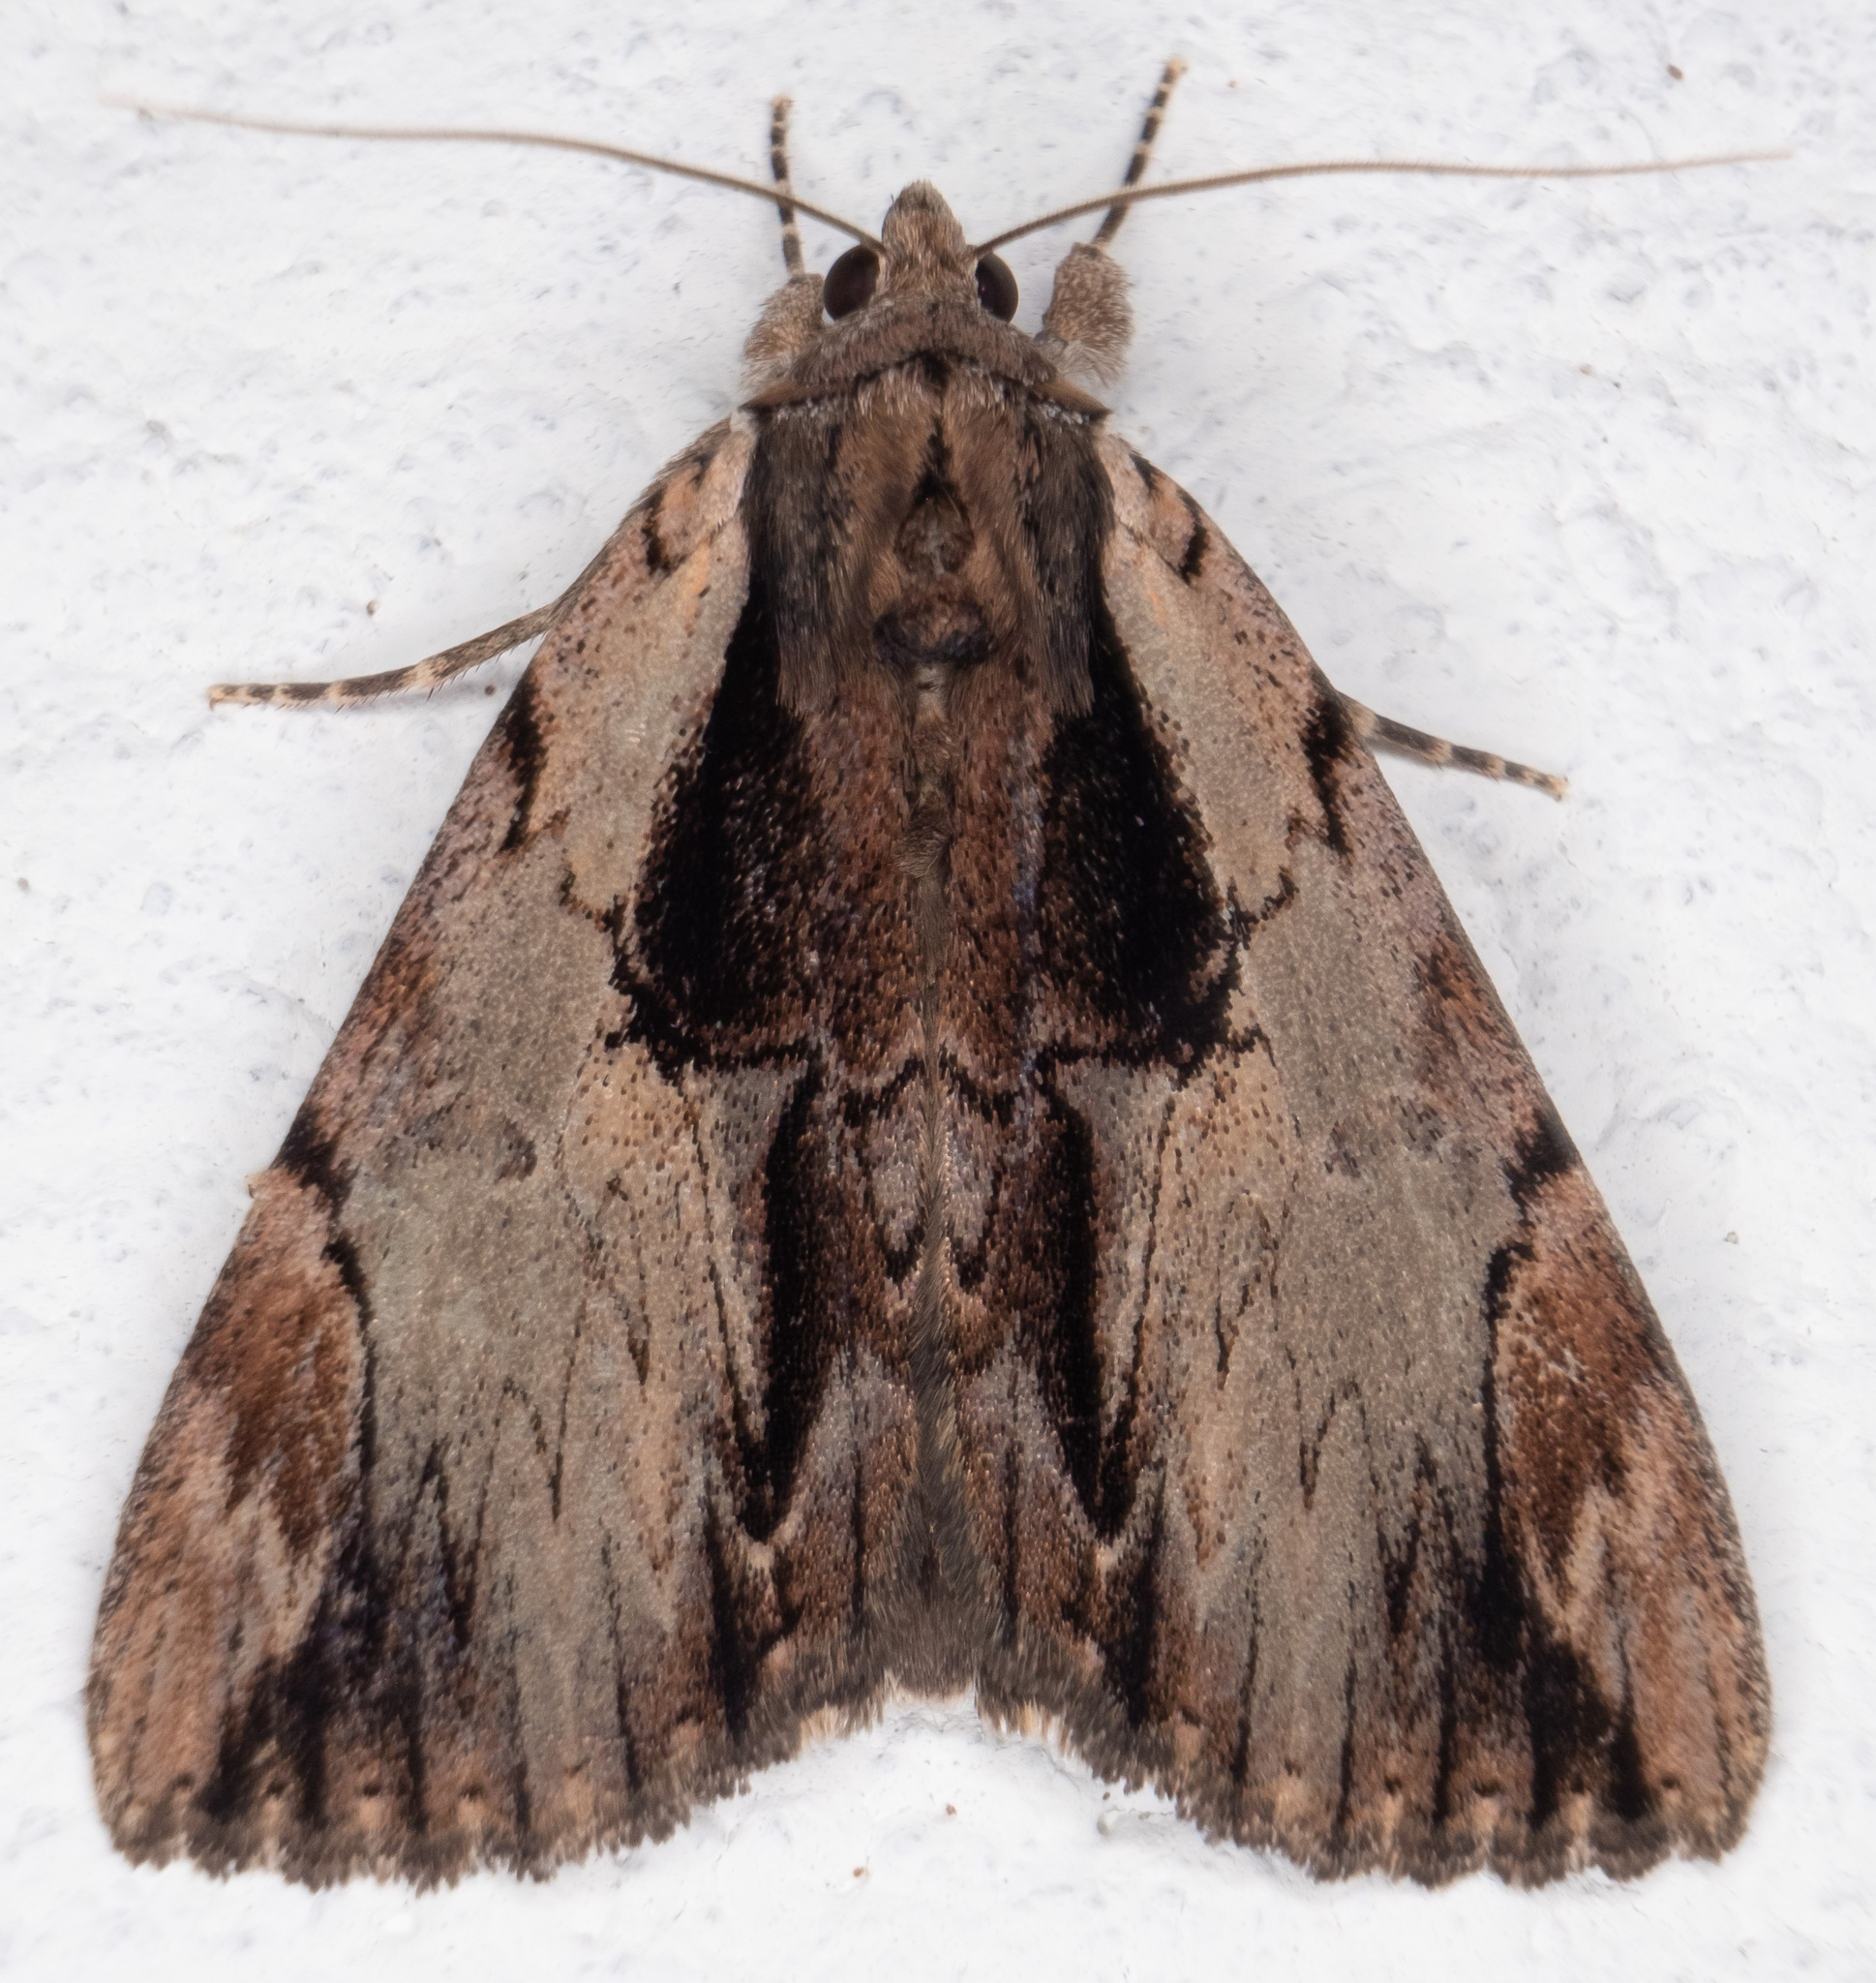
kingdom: Animalia
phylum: Arthropoda
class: Insecta
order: Lepidoptera
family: Erebidae
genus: Catocala
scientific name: Catocala ultronia
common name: Ultronia underwing
